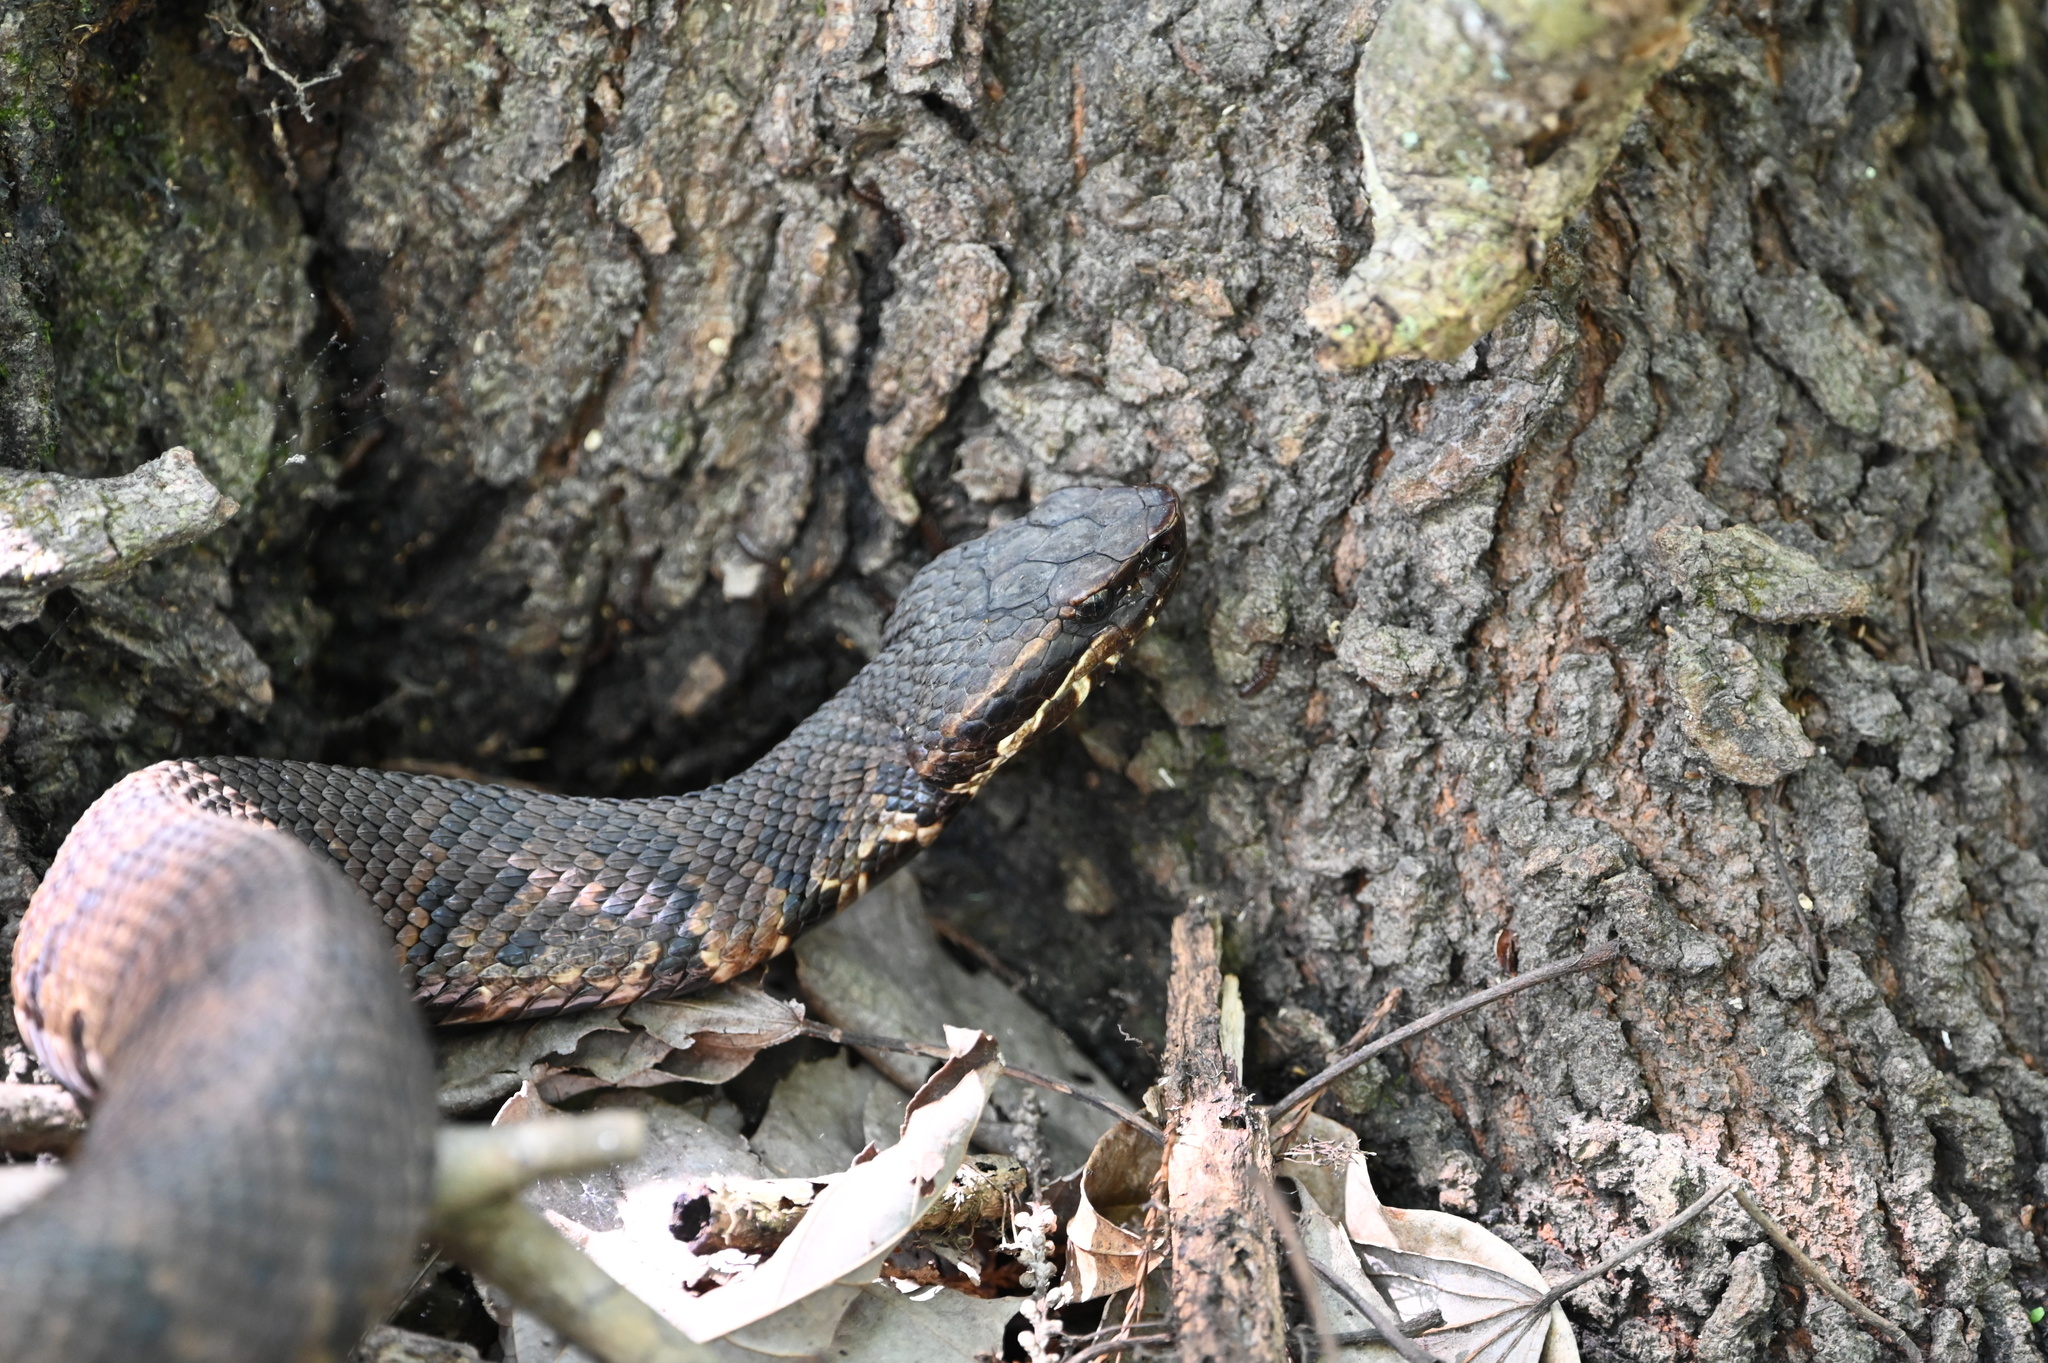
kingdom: Animalia
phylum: Chordata
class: Squamata
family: Viperidae
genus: Agkistrodon
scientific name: Agkistrodon piscivorus
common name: Cottonmouth
